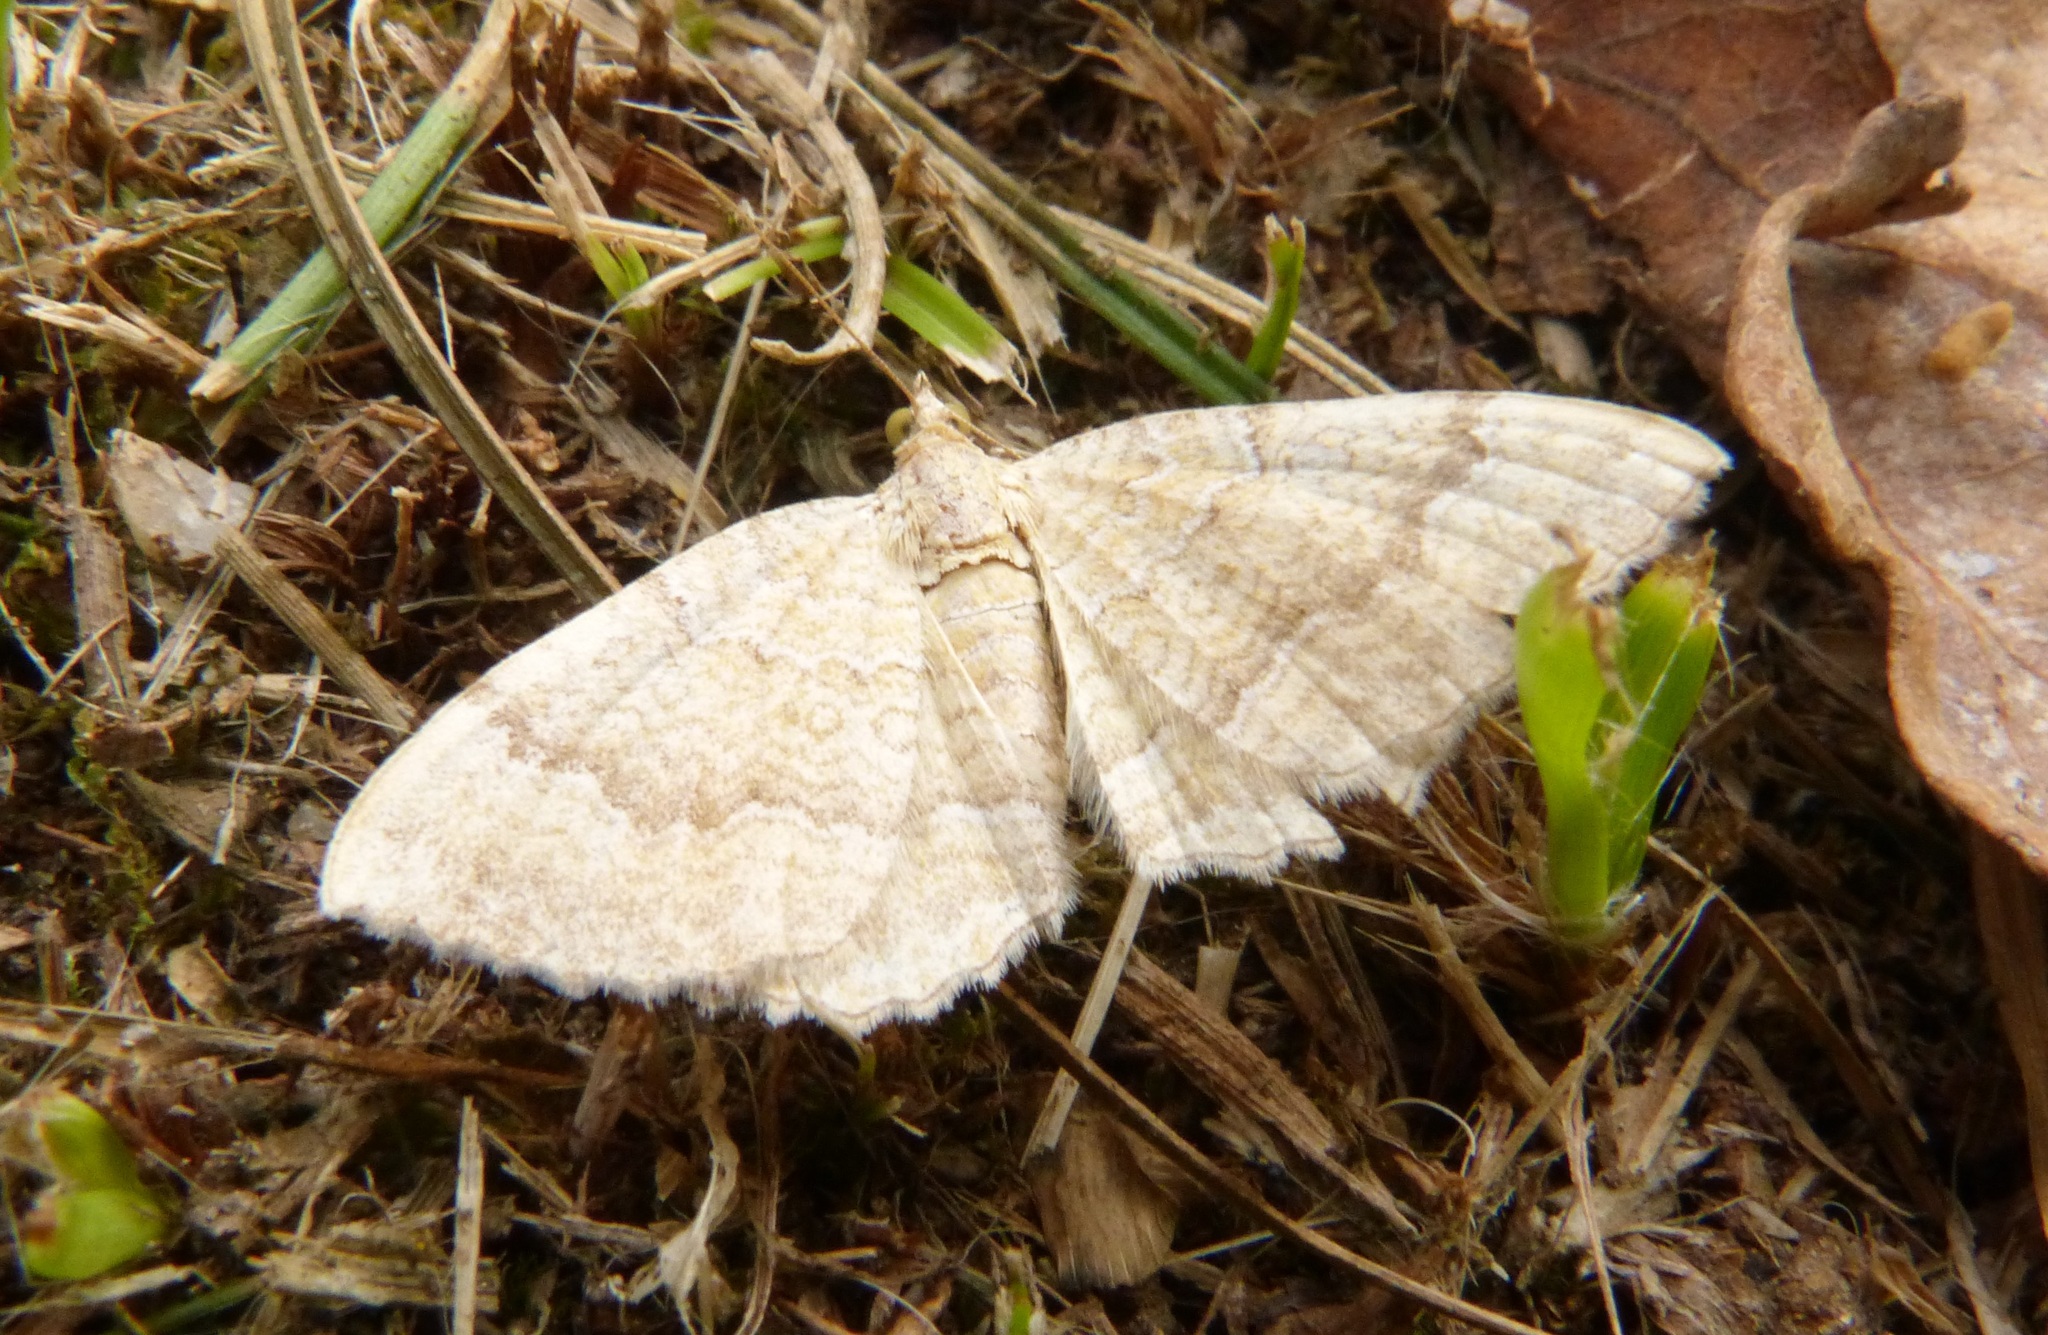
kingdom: Animalia
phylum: Arthropoda
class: Insecta
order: Lepidoptera
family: Geometridae
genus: Camptogramma
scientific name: Camptogramma bilineata
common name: Yellow shell
